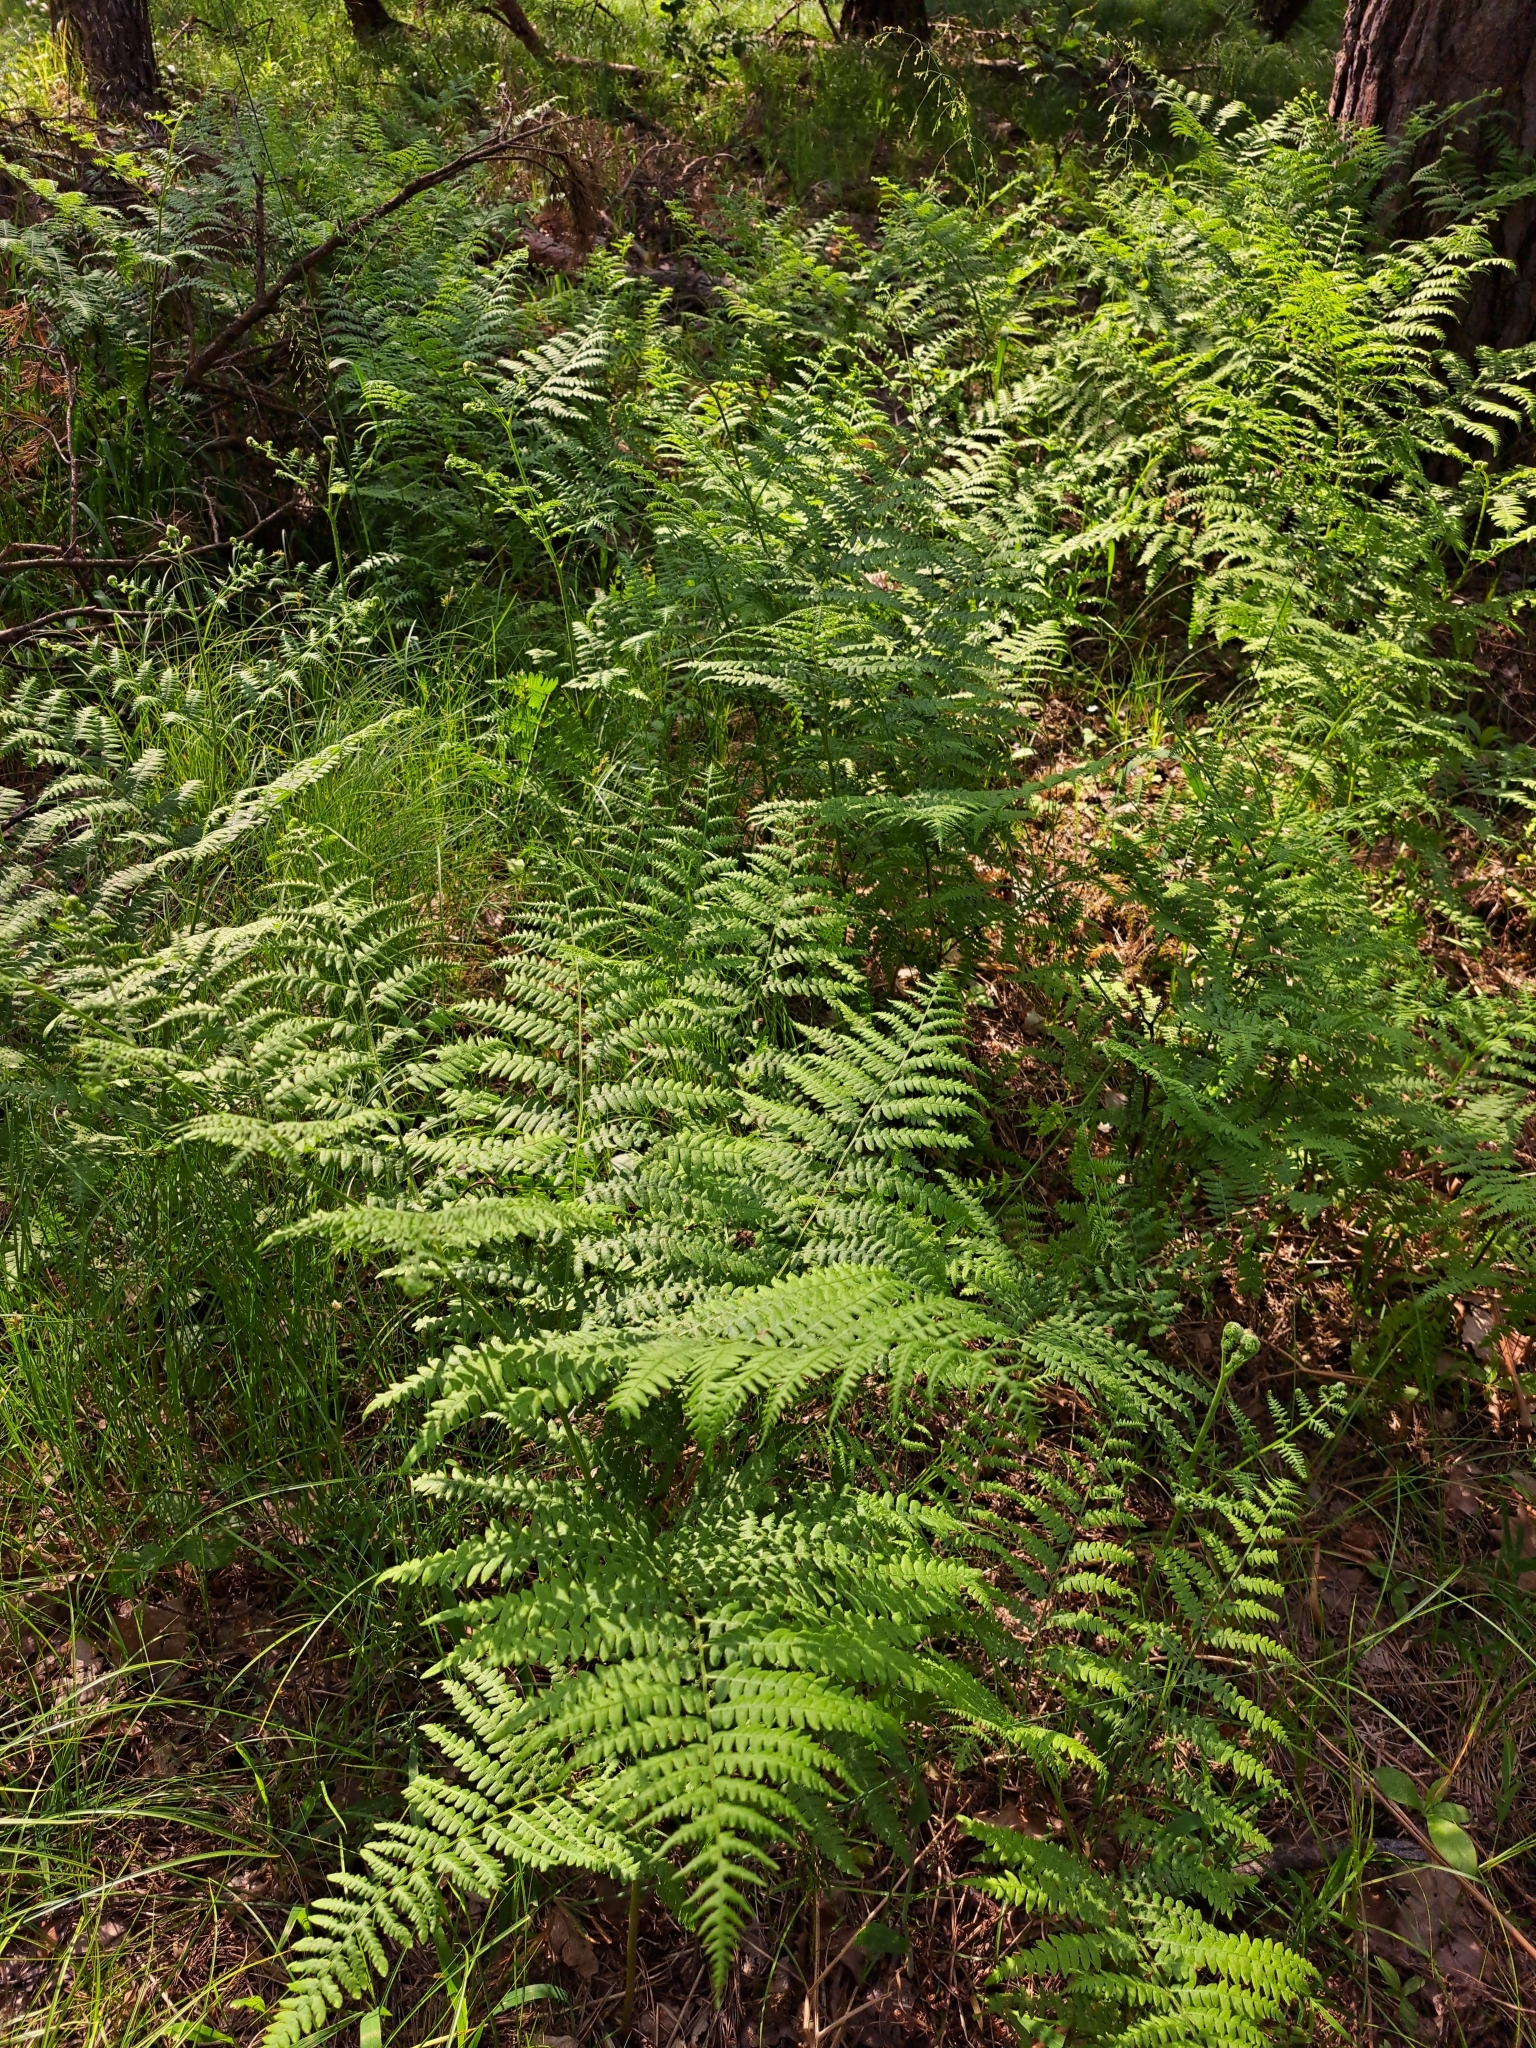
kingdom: Plantae
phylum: Tracheophyta
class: Polypodiopsida
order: Polypodiales
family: Dennstaedtiaceae
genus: Pteridium
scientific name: Pteridium aquilinum
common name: Bracken
